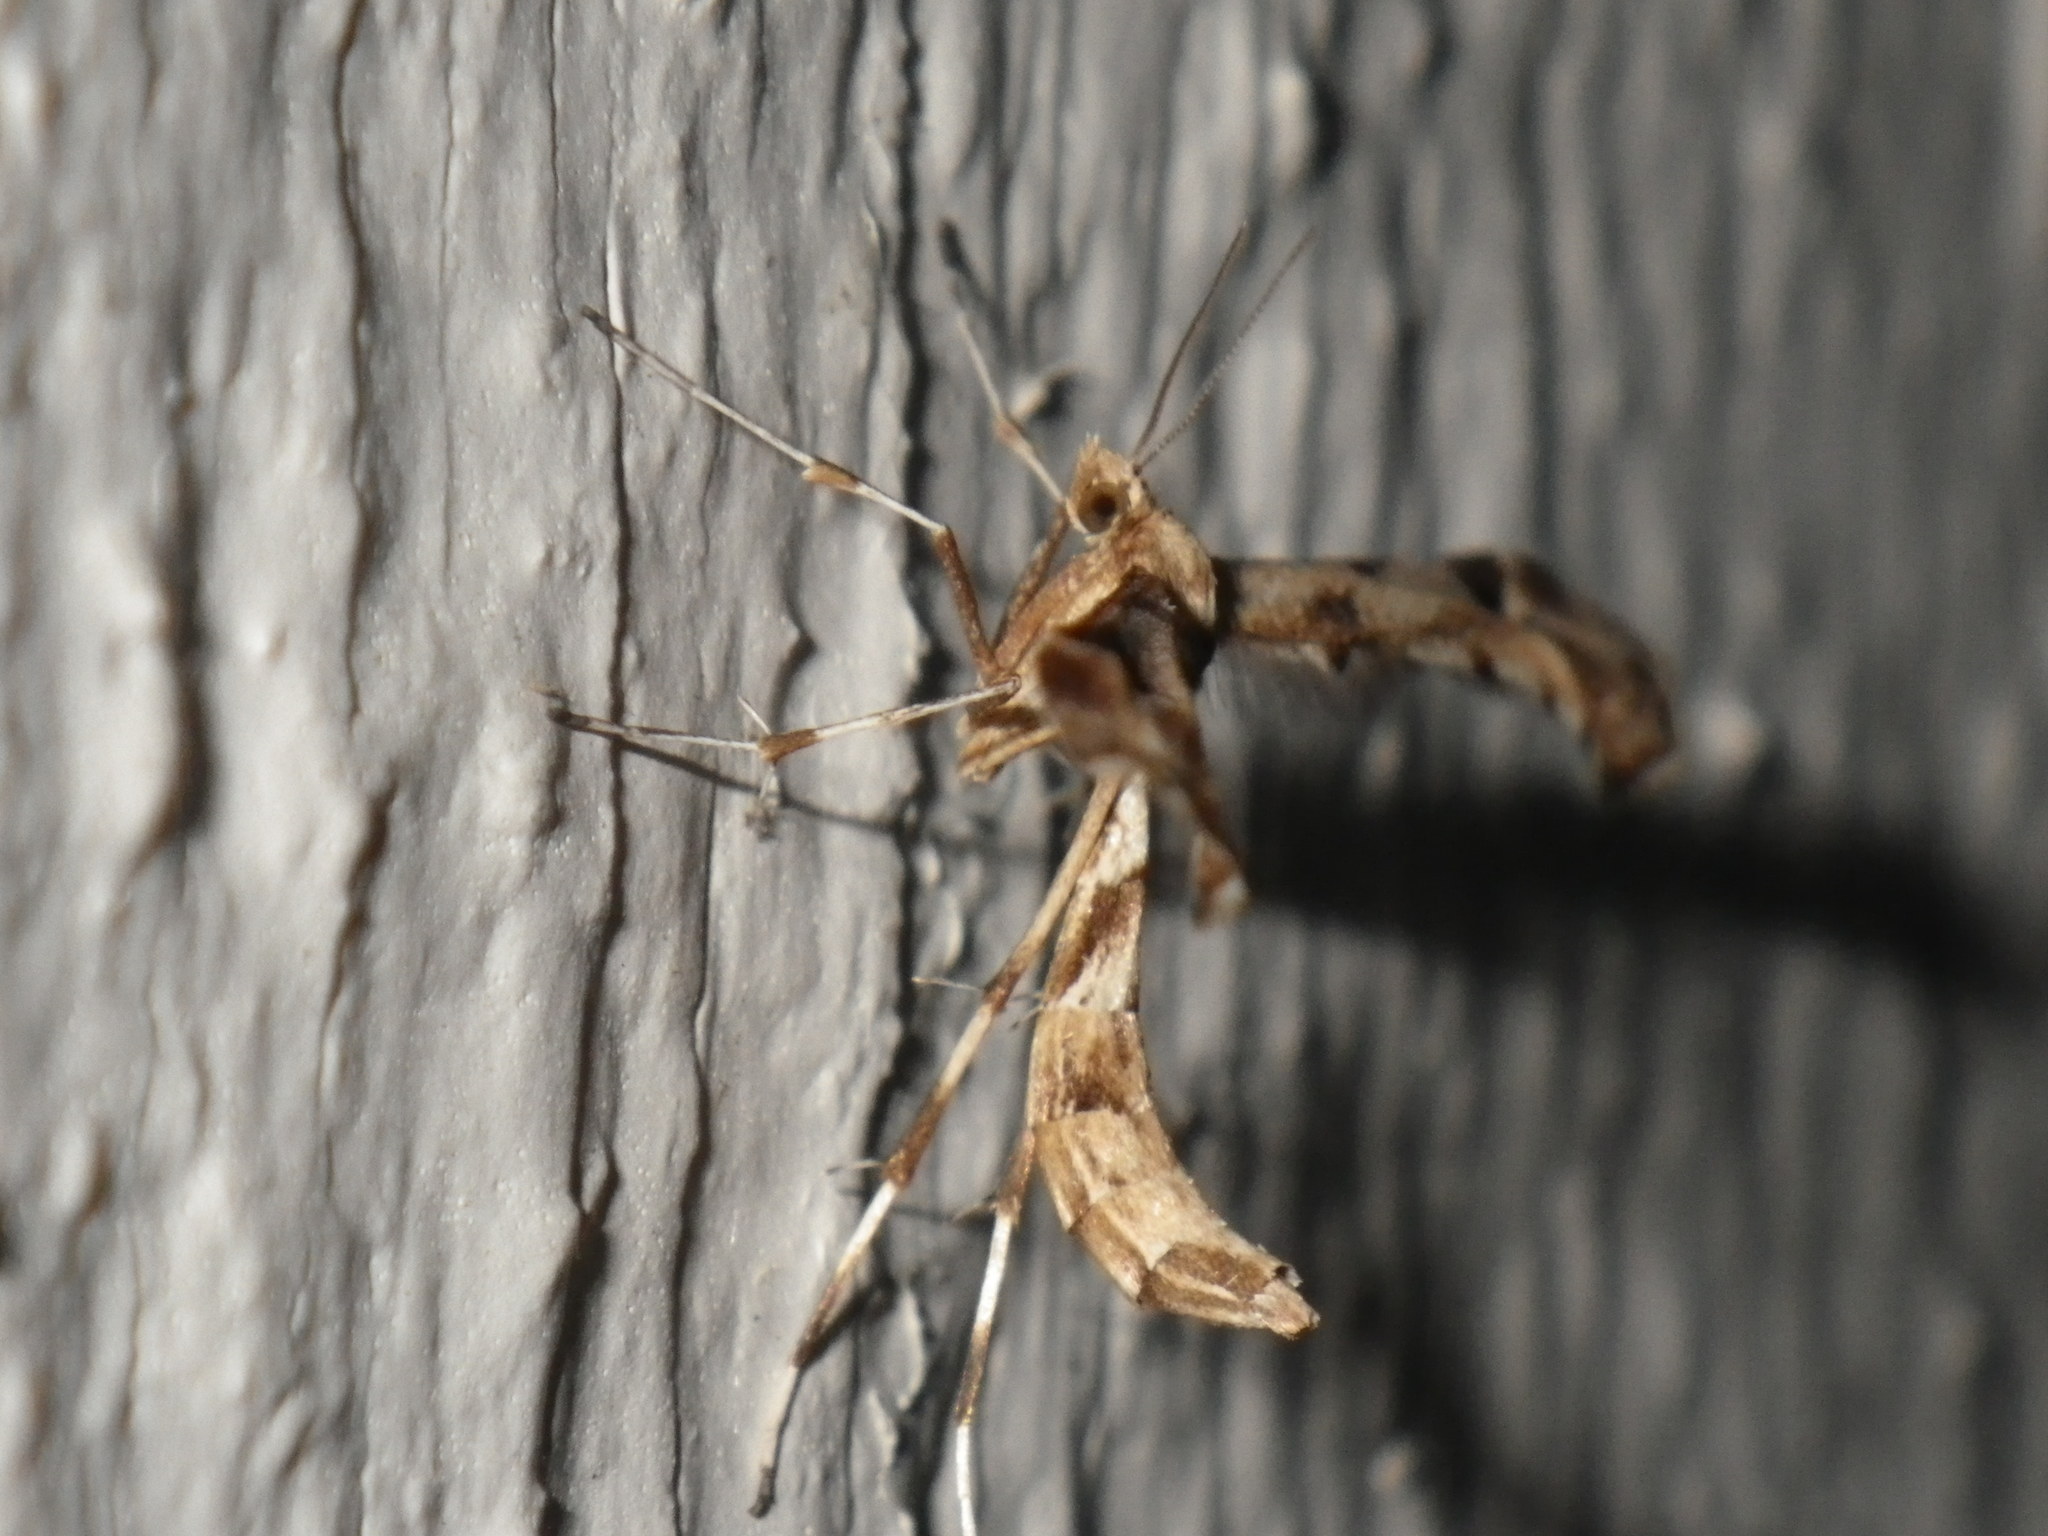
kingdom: Animalia
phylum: Arthropoda
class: Insecta
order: Lepidoptera
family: Pterophoridae
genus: Platyptilia
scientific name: Platyptilia carduidactylus
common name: Artichoke plume moth
